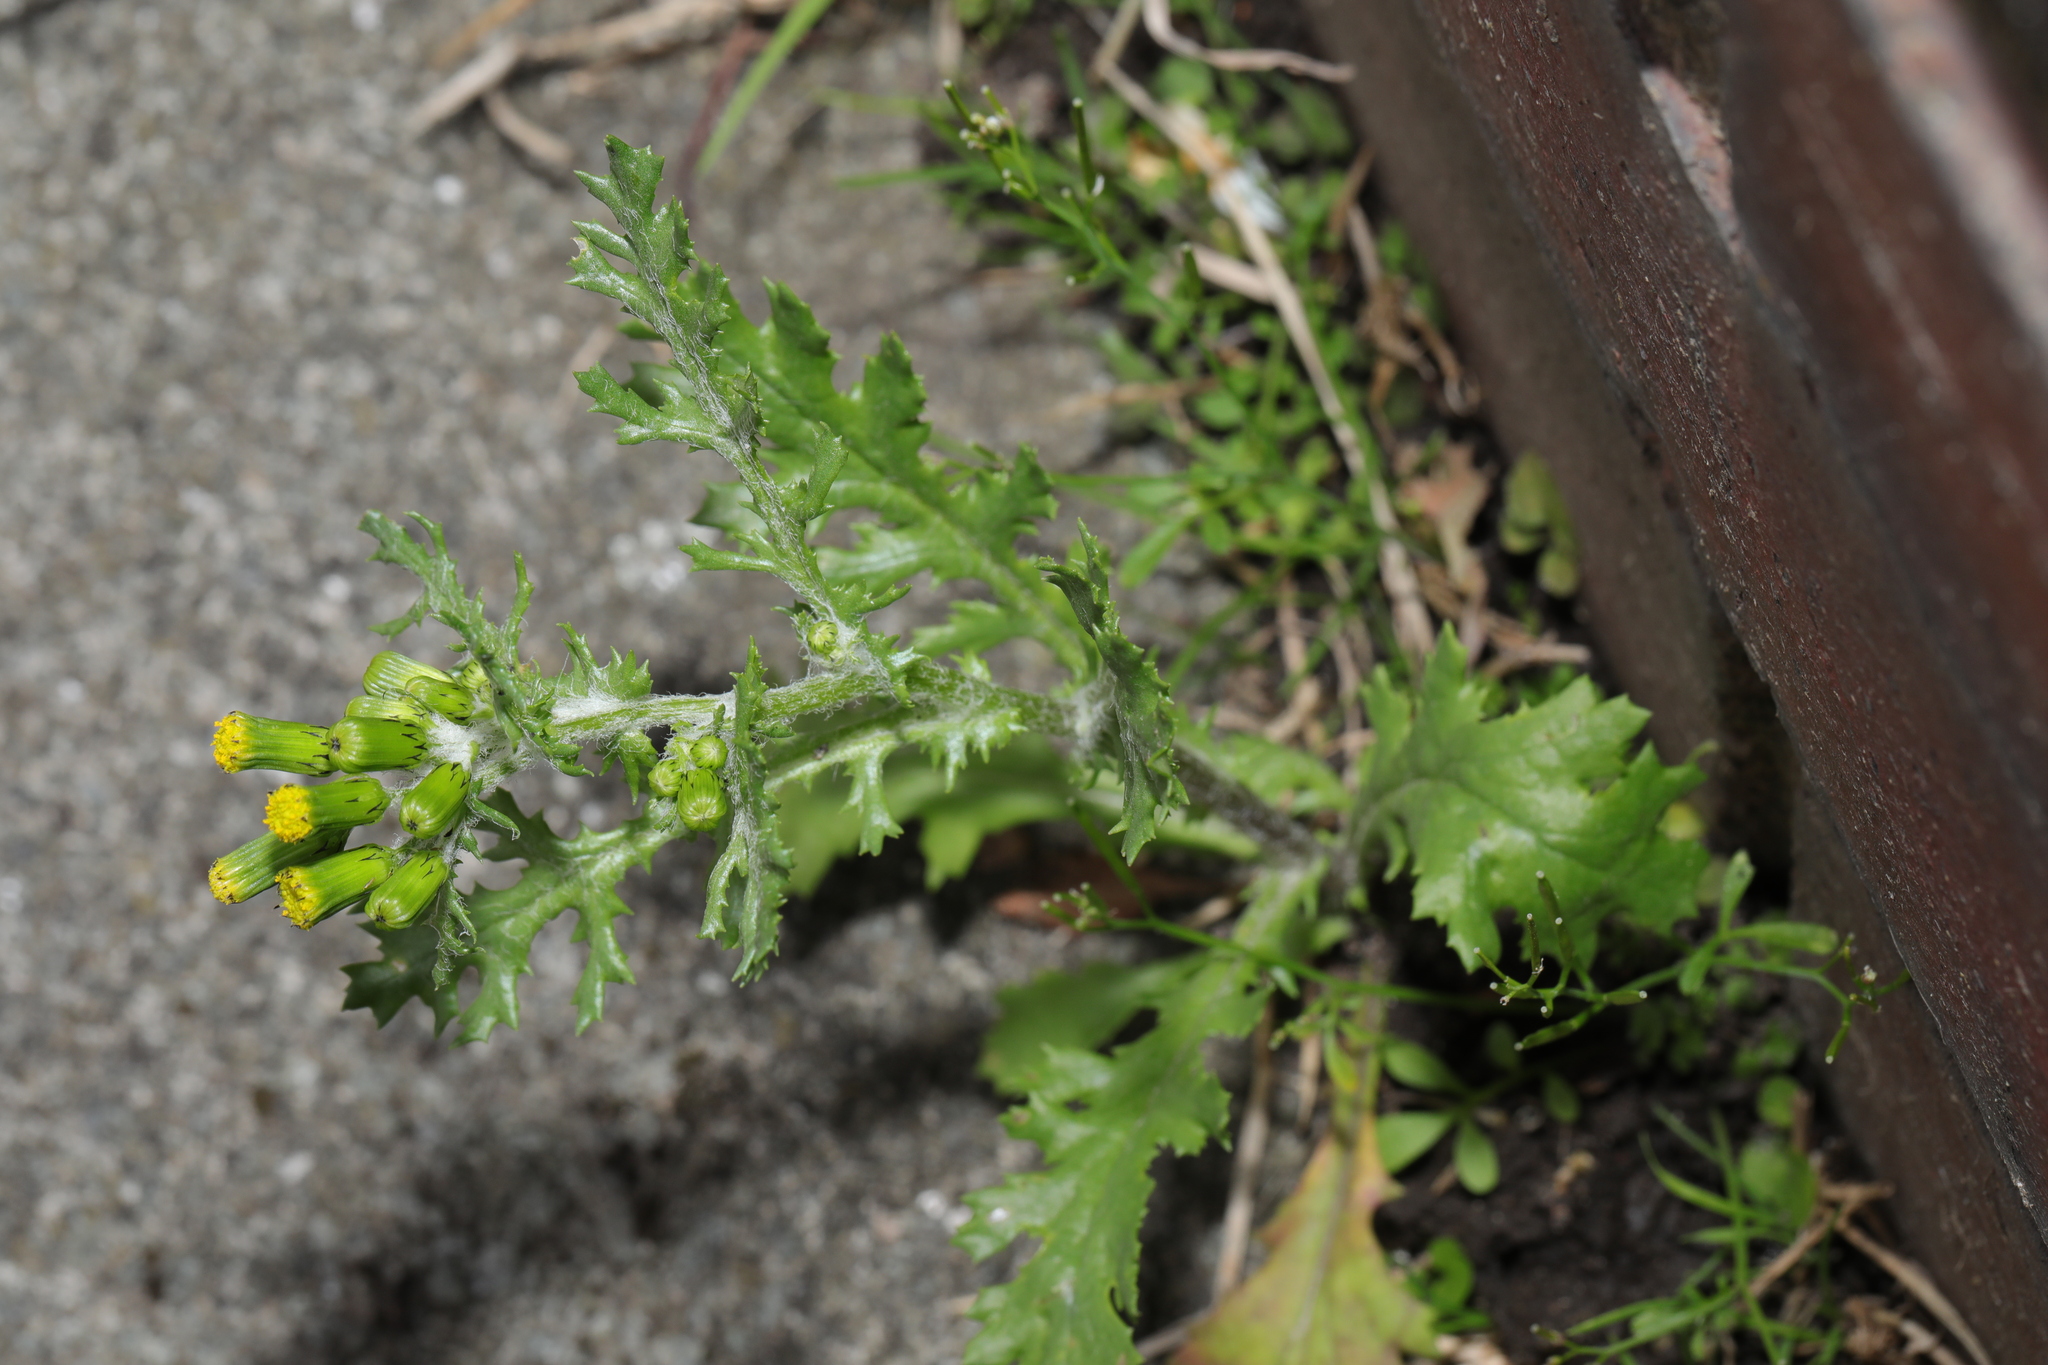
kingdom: Plantae
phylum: Tracheophyta
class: Magnoliopsida
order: Asterales
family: Asteraceae
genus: Senecio
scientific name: Senecio vulgaris
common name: Old-man-in-the-spring
